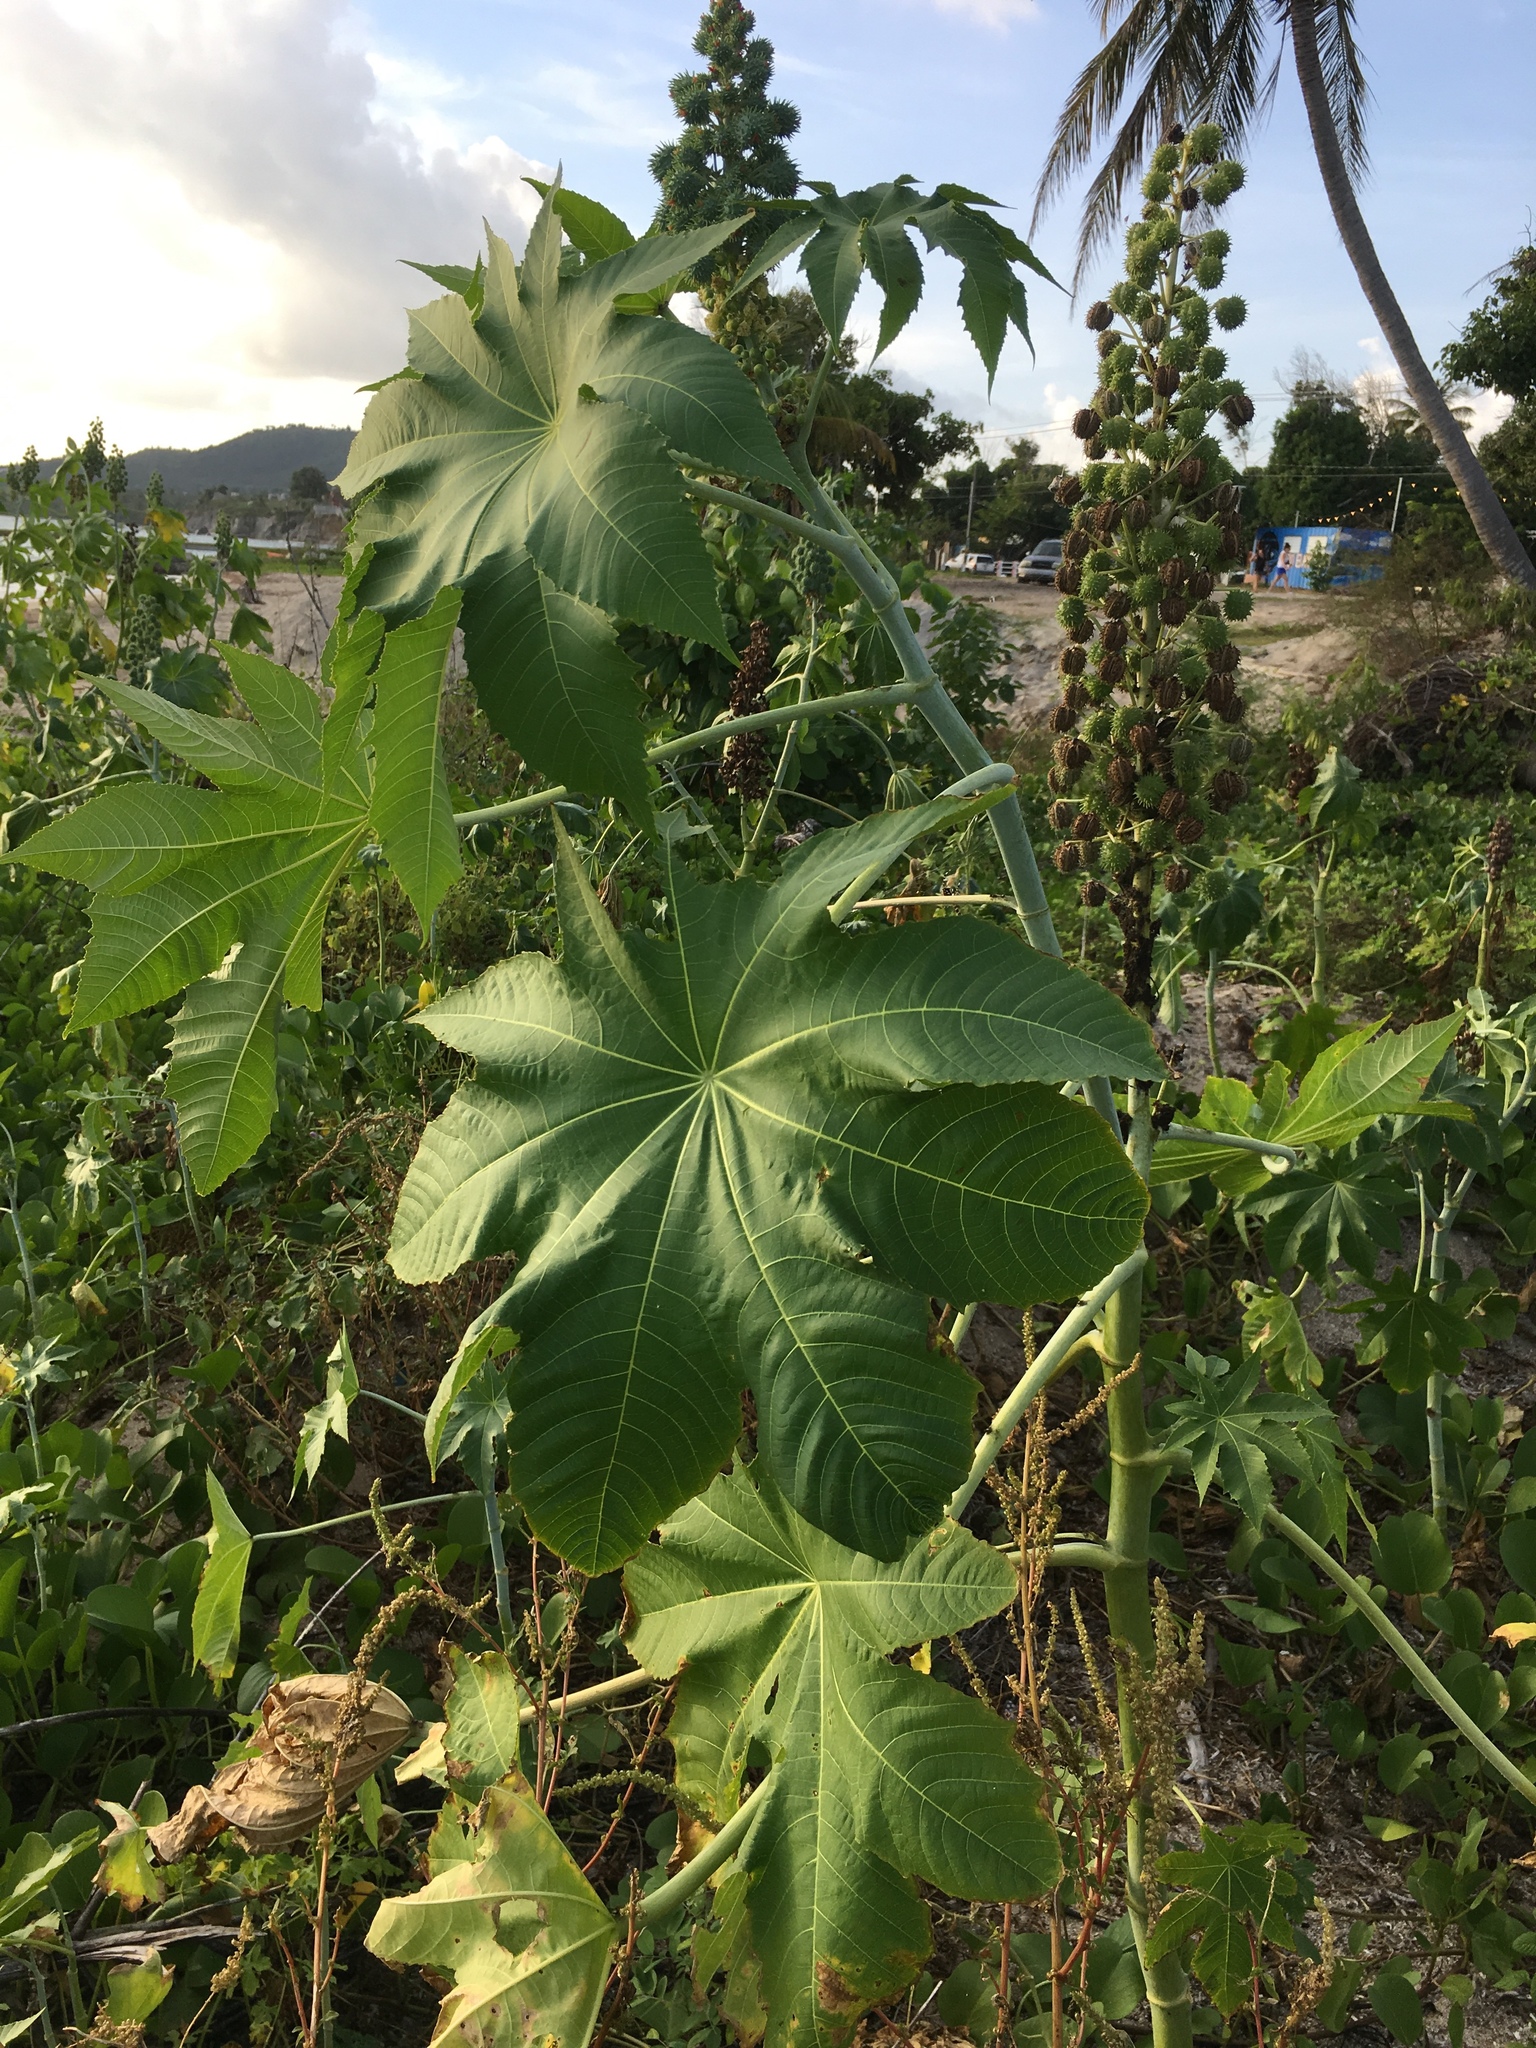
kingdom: Plantae
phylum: Tracheophyta
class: Magnoliopsida
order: Malpighiales
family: Euphorbiaceae
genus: Ricinus
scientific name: Ricinus communis
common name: Castor-oil-plant
